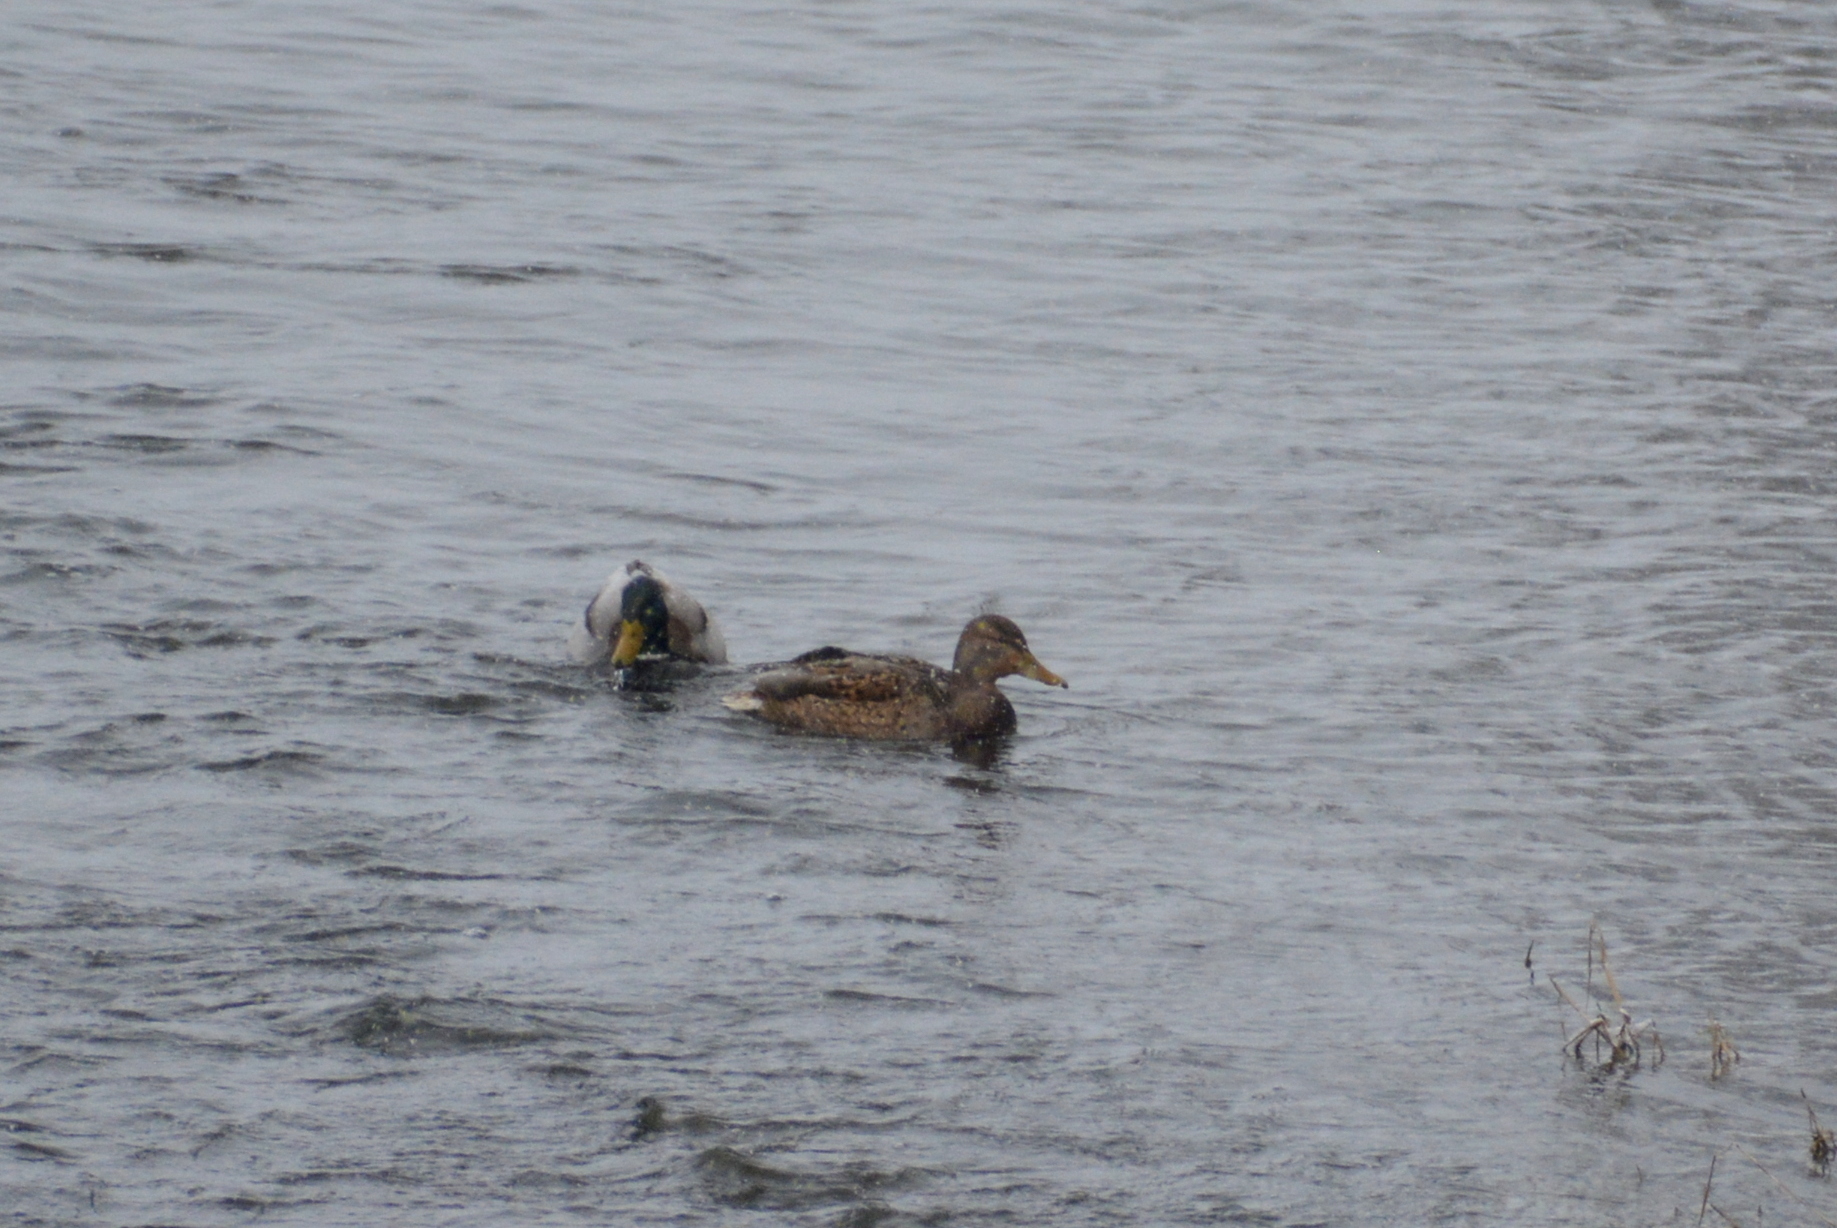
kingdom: Animalia
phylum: Chordata
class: Aves
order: Anseriformes
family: Anatidae
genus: Anas
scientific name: Anas platyrhynchos
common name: Mallard
